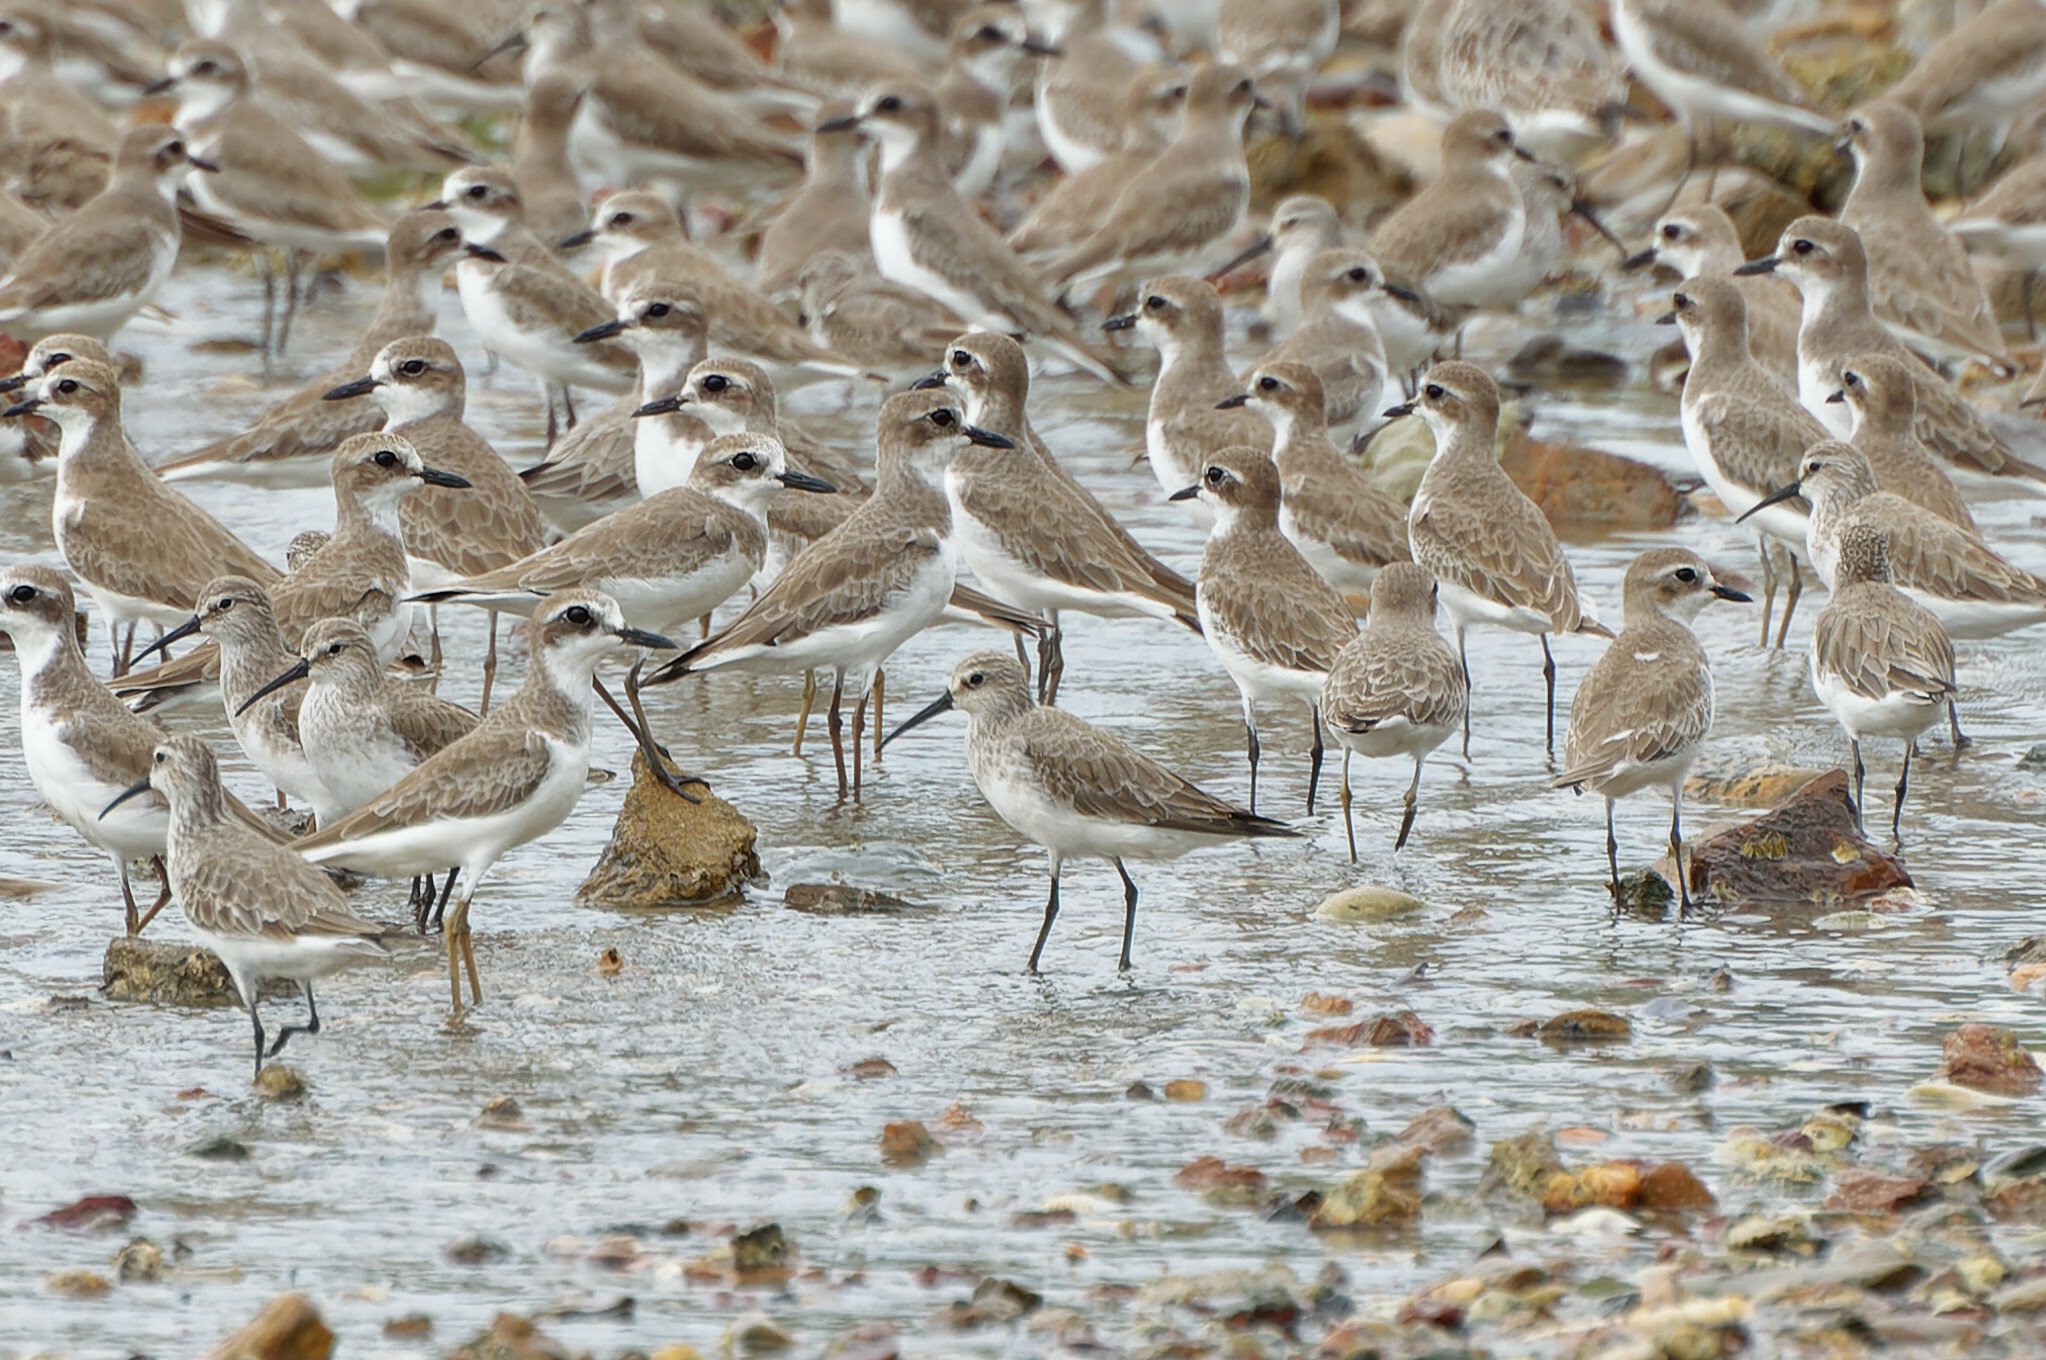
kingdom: Animalia
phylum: Chordata
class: Aves
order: Charadriiformes
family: Scolopacidae
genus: Calidris
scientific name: Calidris ferruginea
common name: Curlew sandpiper
